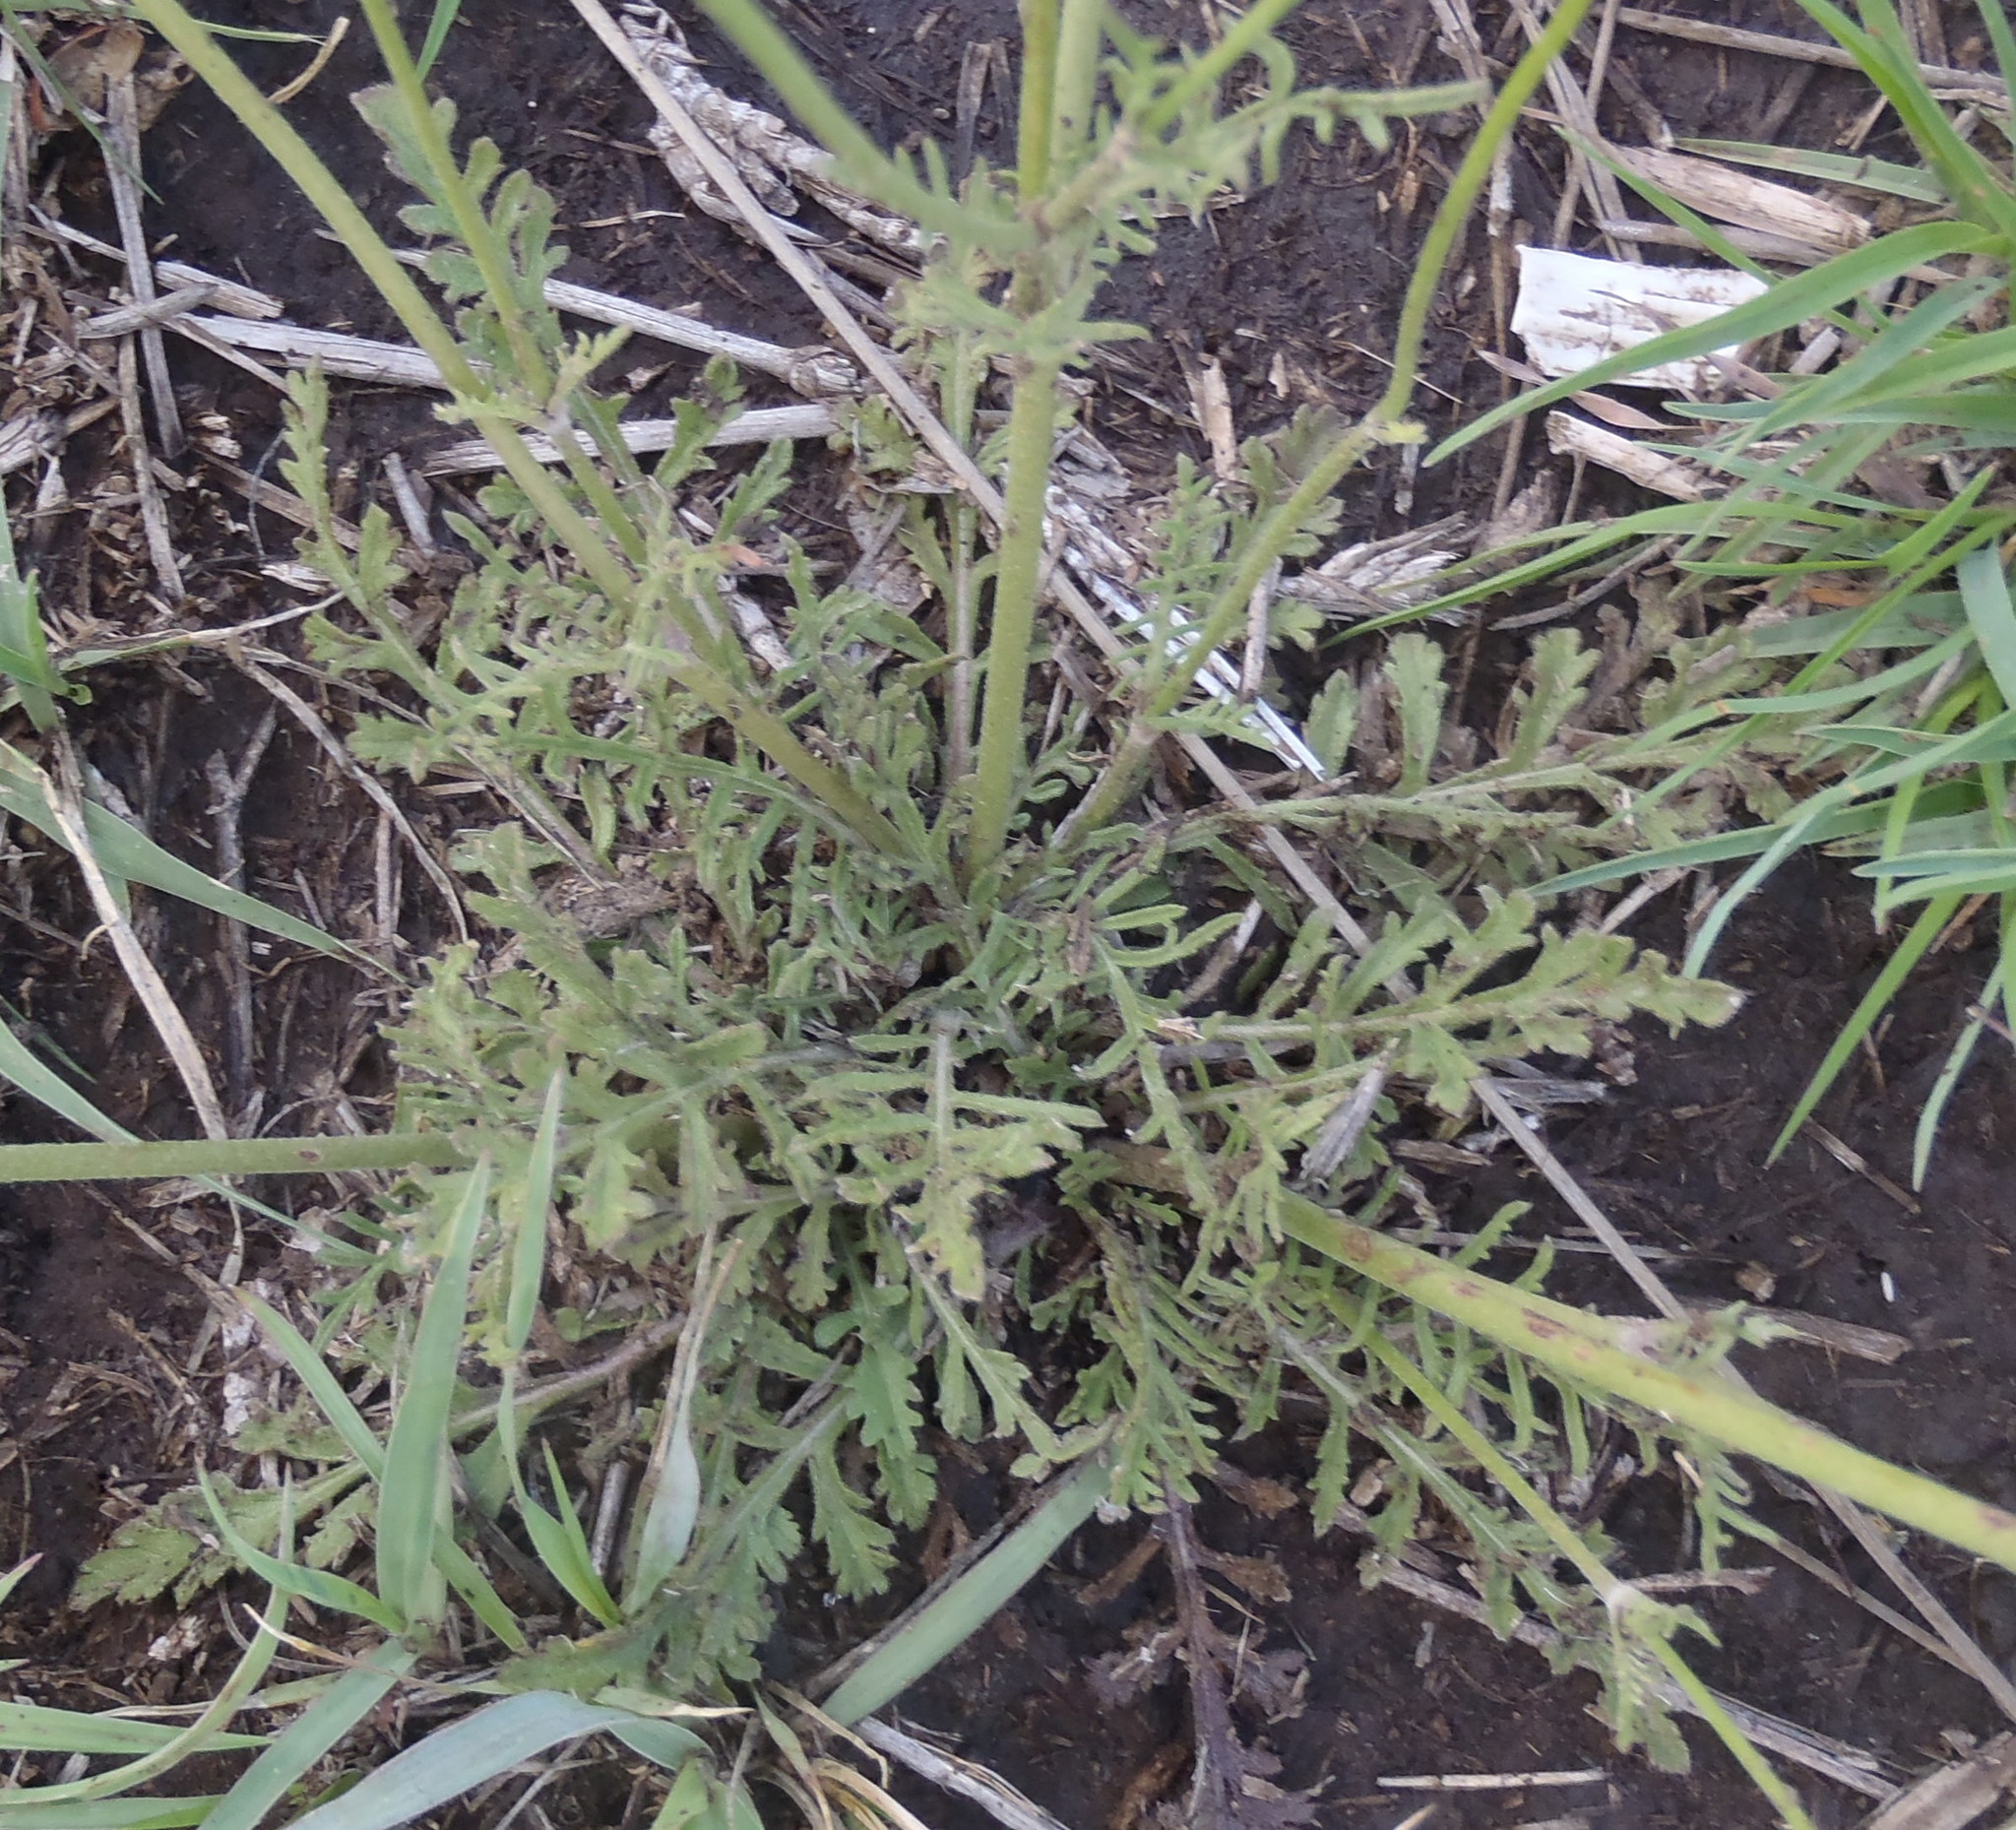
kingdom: Plantae
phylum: Tracheophyta
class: Magnoliopsida
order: Dipsacales
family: Caprifoliaceae
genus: Scabiosa
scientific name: Scabiosa columbaria
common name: Small scabious
